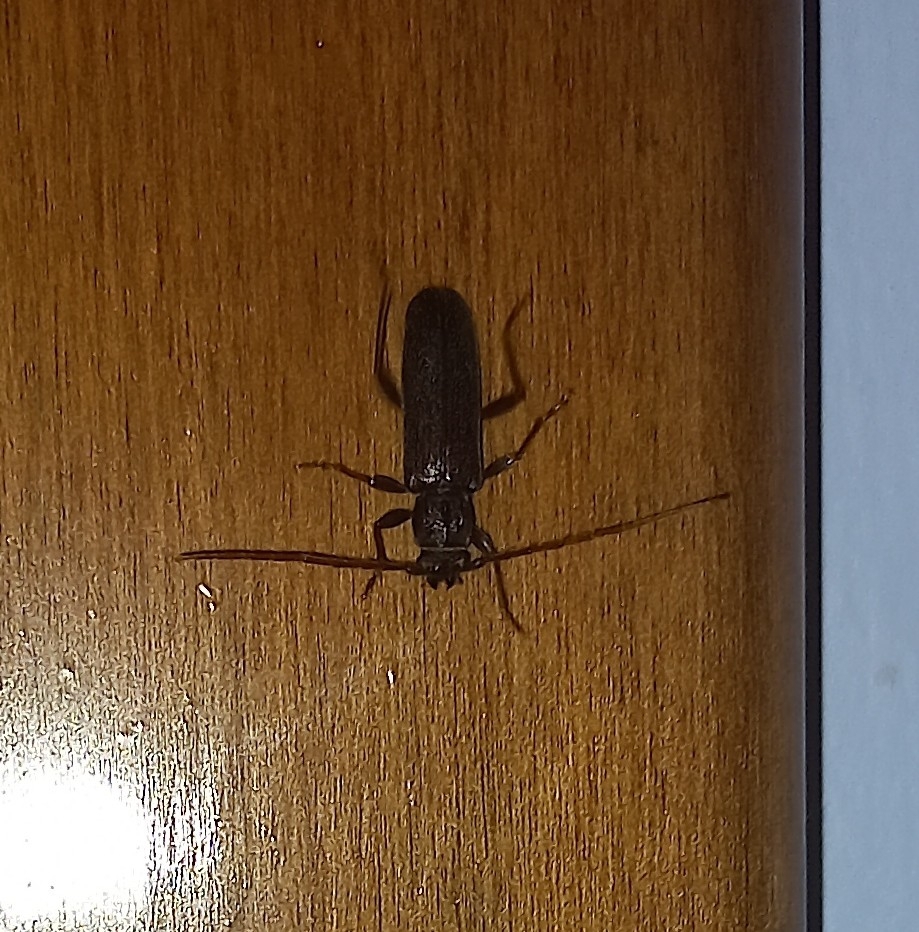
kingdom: Animalia
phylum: Arthropoda
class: Insecta
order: Coleoptera
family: Cerambycidae
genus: Liogramma
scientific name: Liogramma zelandica
